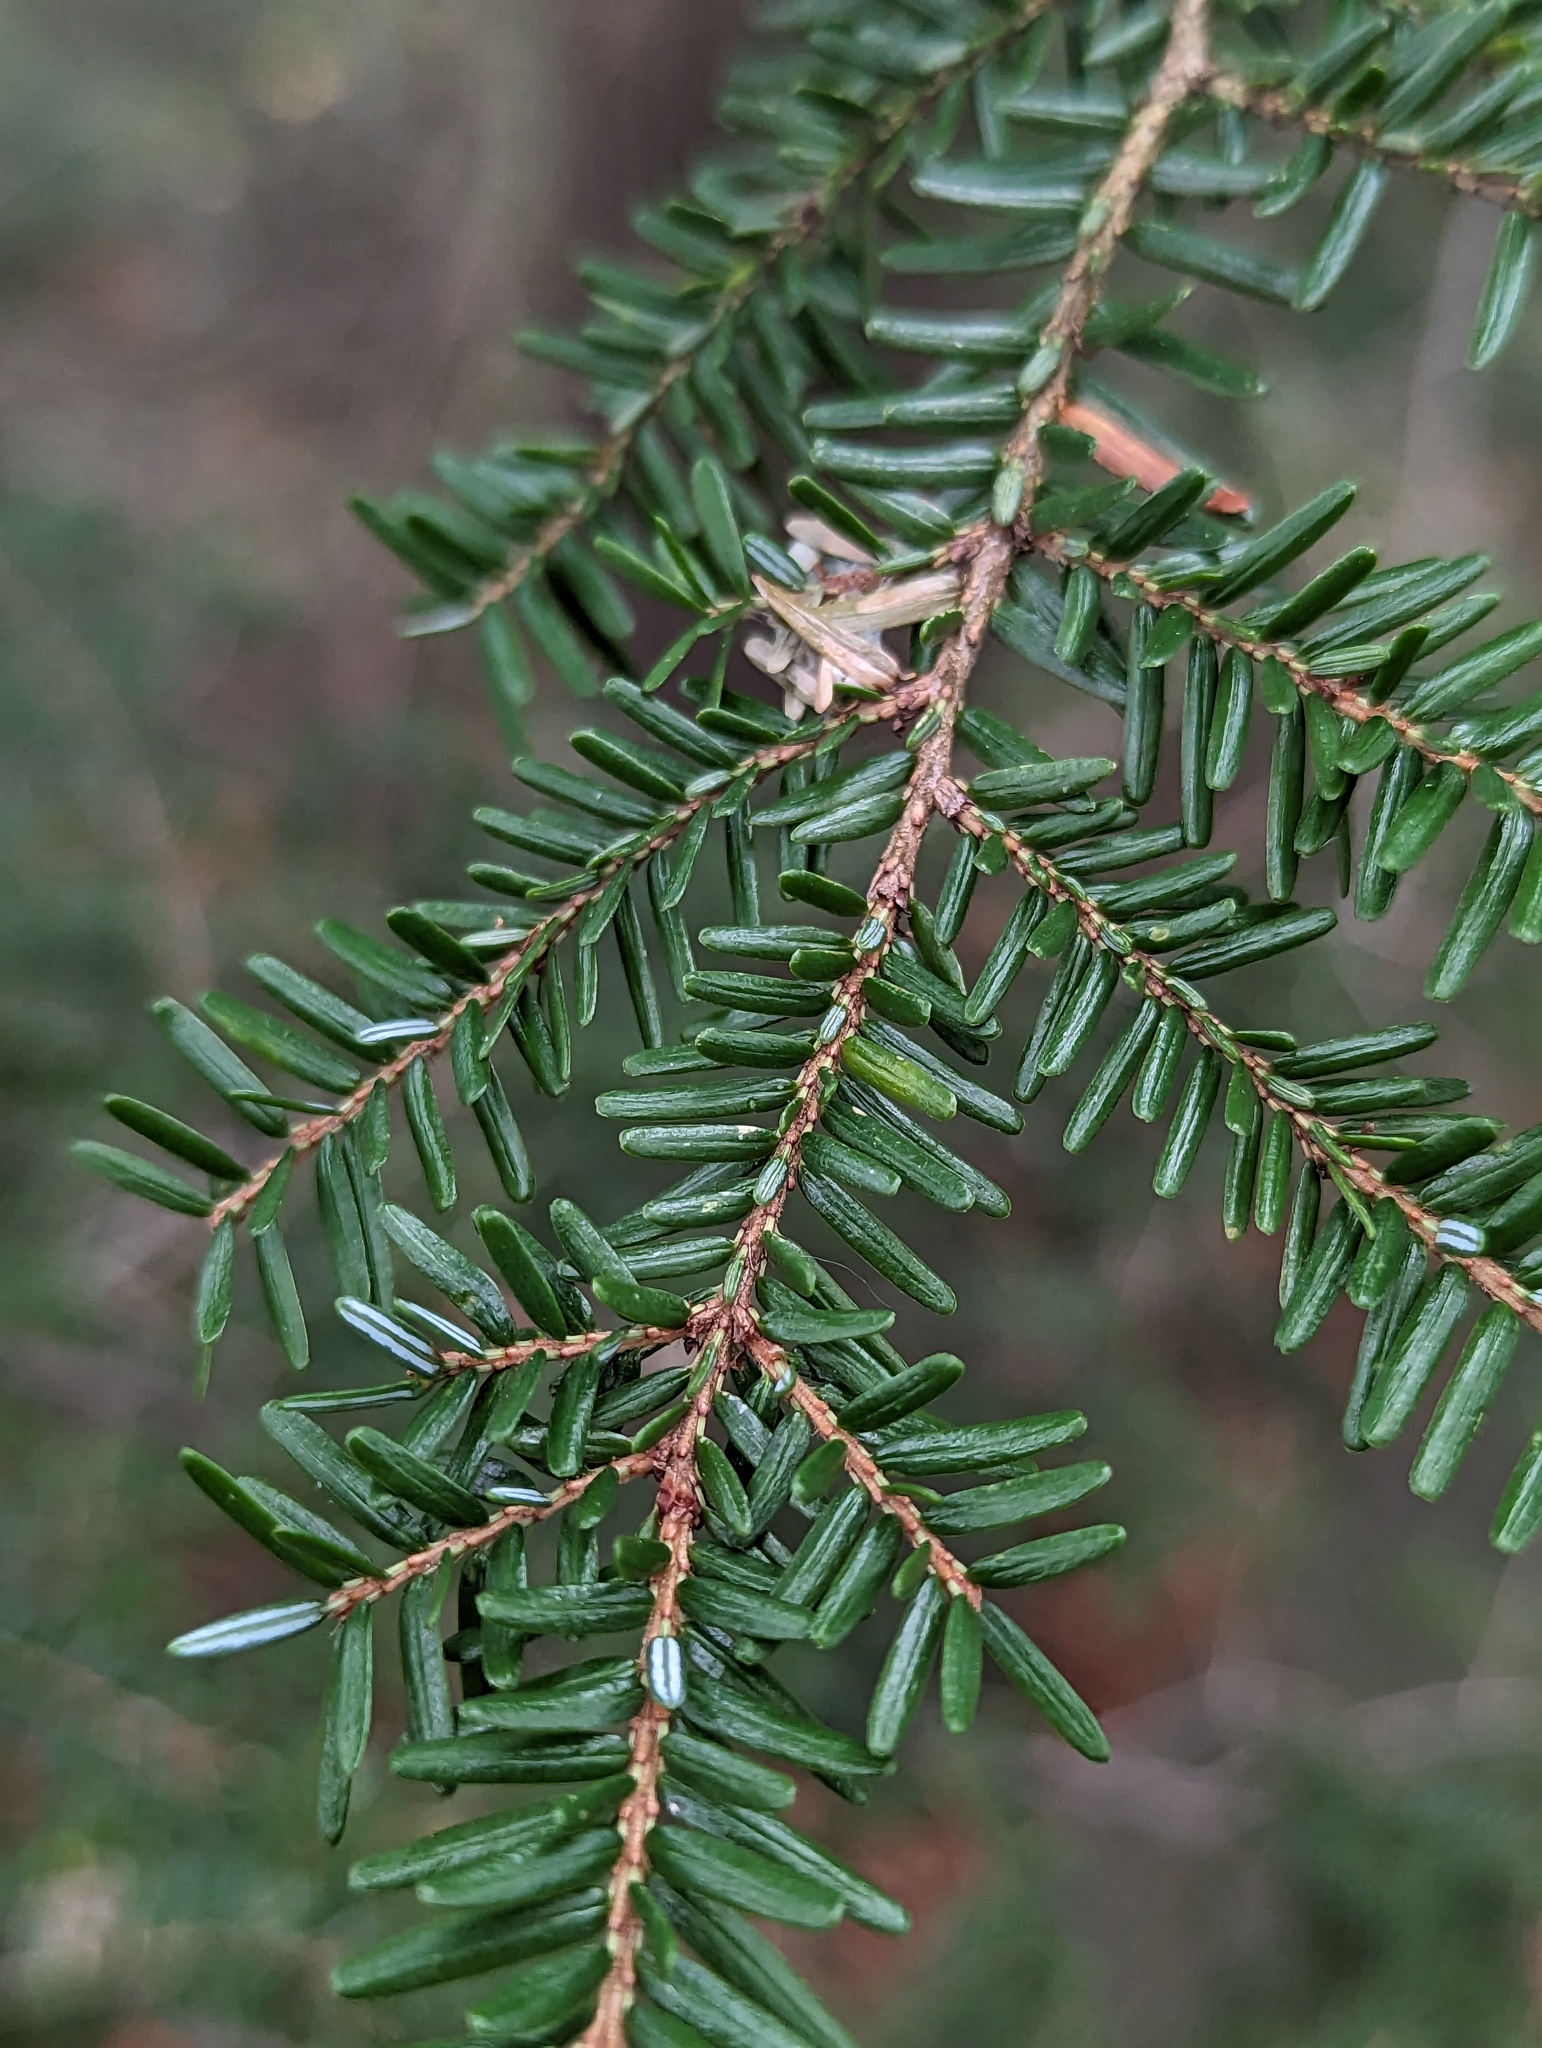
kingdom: Plantae
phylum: Tracheophyta
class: Pinopsida
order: Pinales
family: Pinaceae
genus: Tsuga
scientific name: Tsuga canadensis
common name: Eastern hemlock
